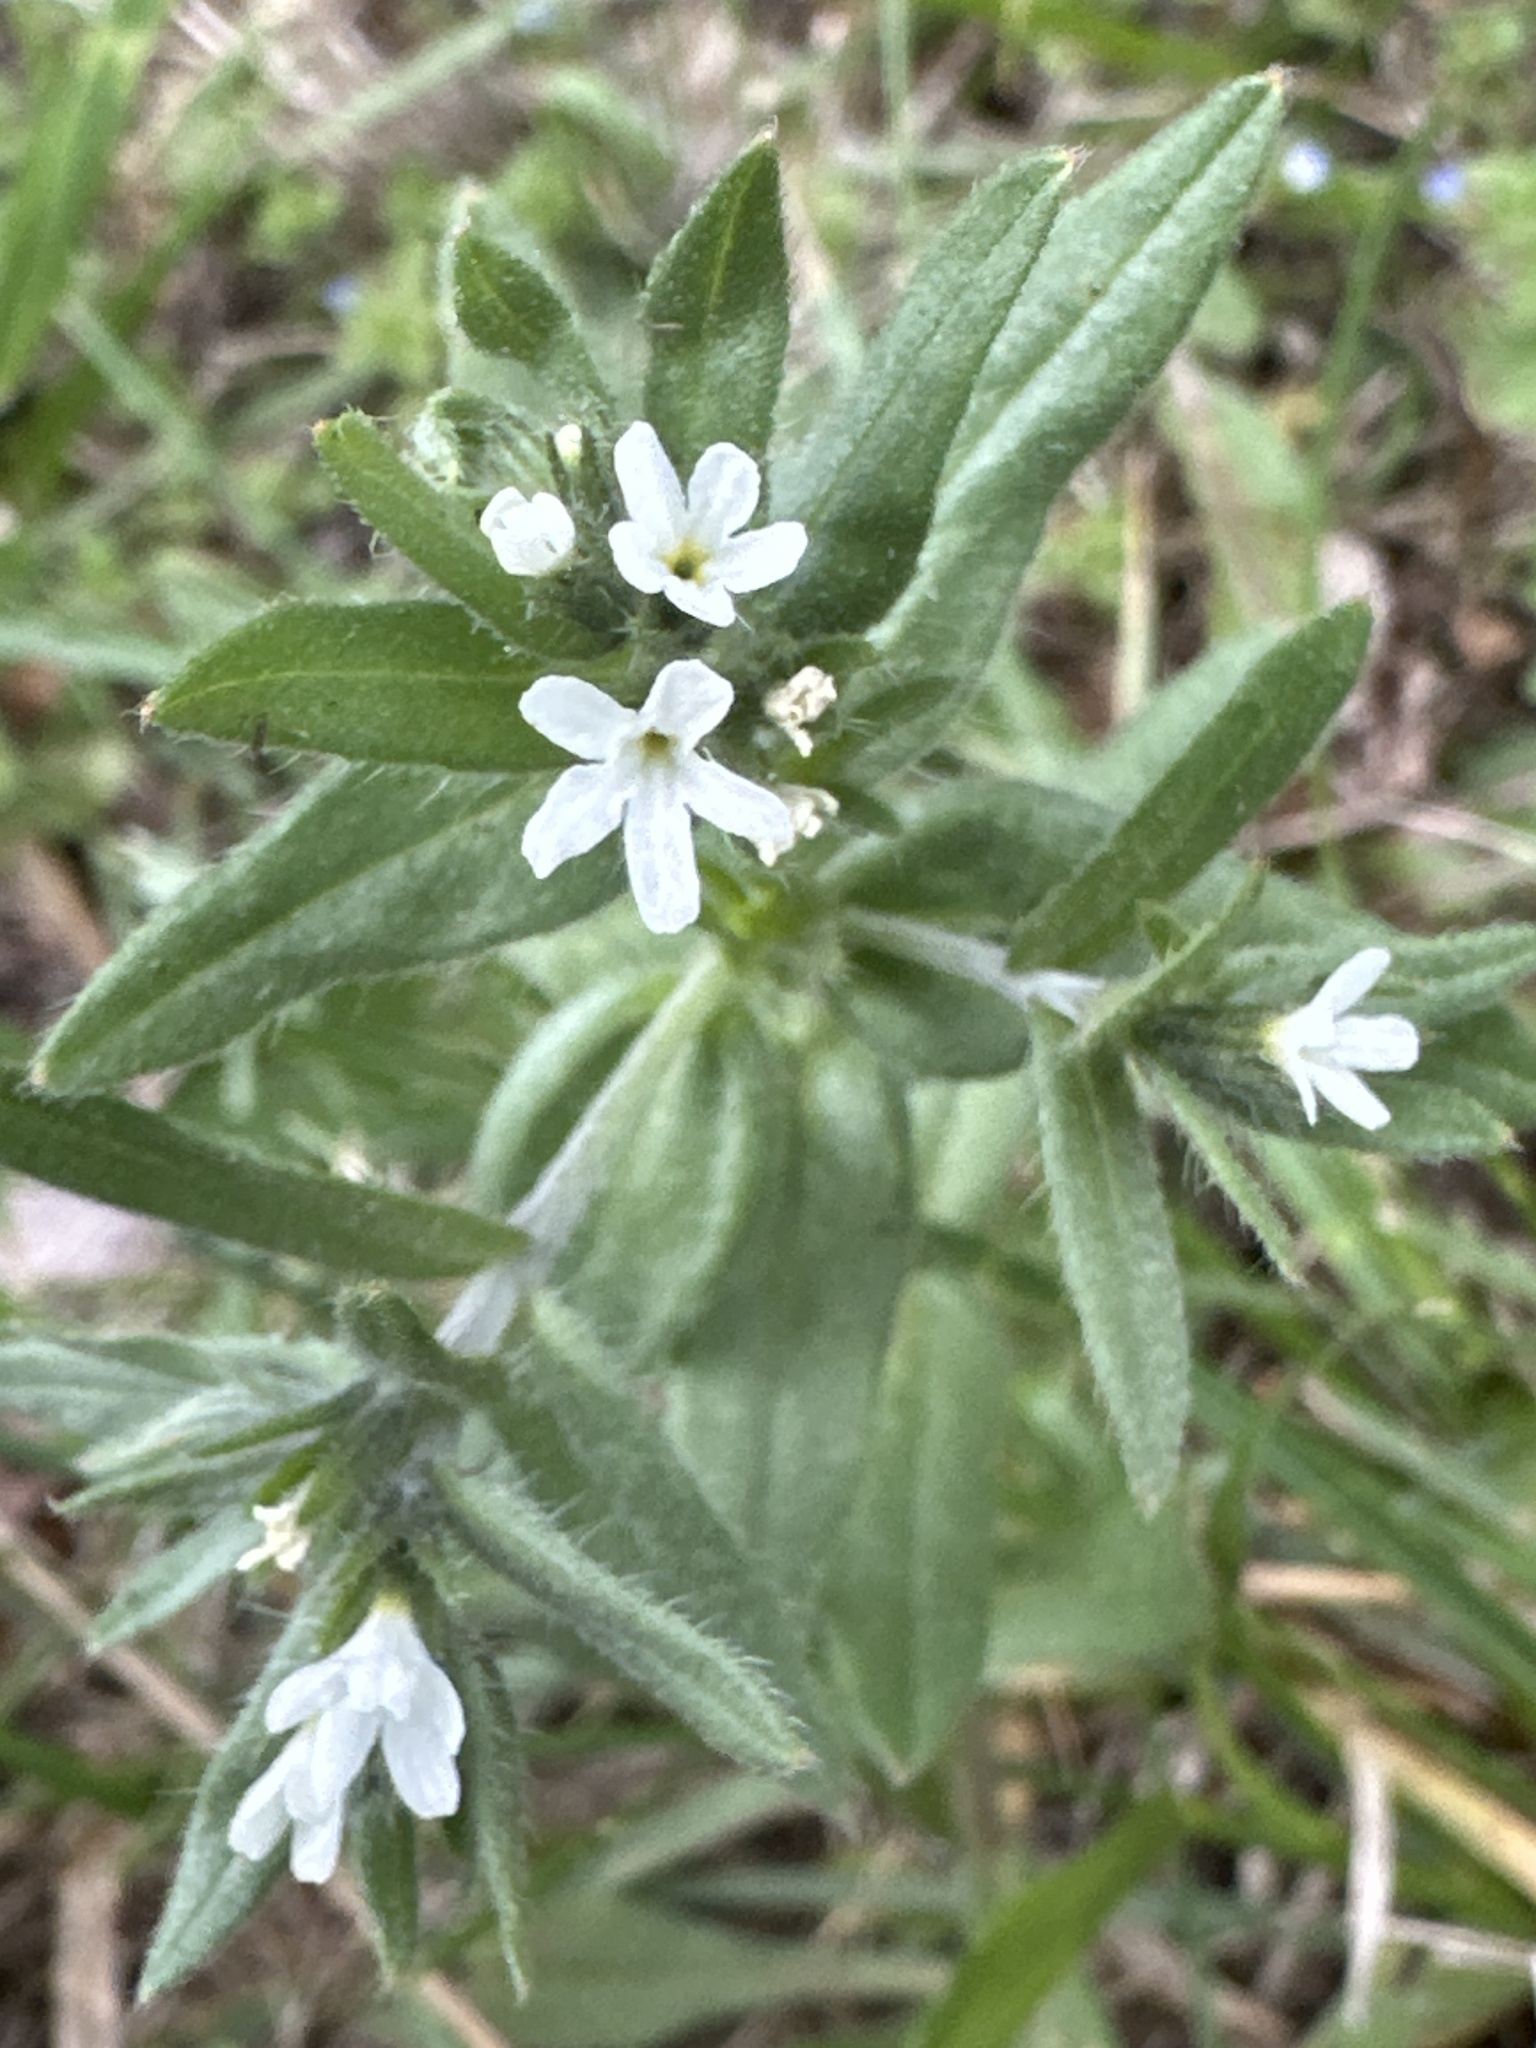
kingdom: Plantae
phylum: Tracheophyta
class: Magnoliopsida
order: Boraginales
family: Boraginaceae
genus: Buglossoides
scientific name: Buglossoides arvensis
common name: Corn gromwell
